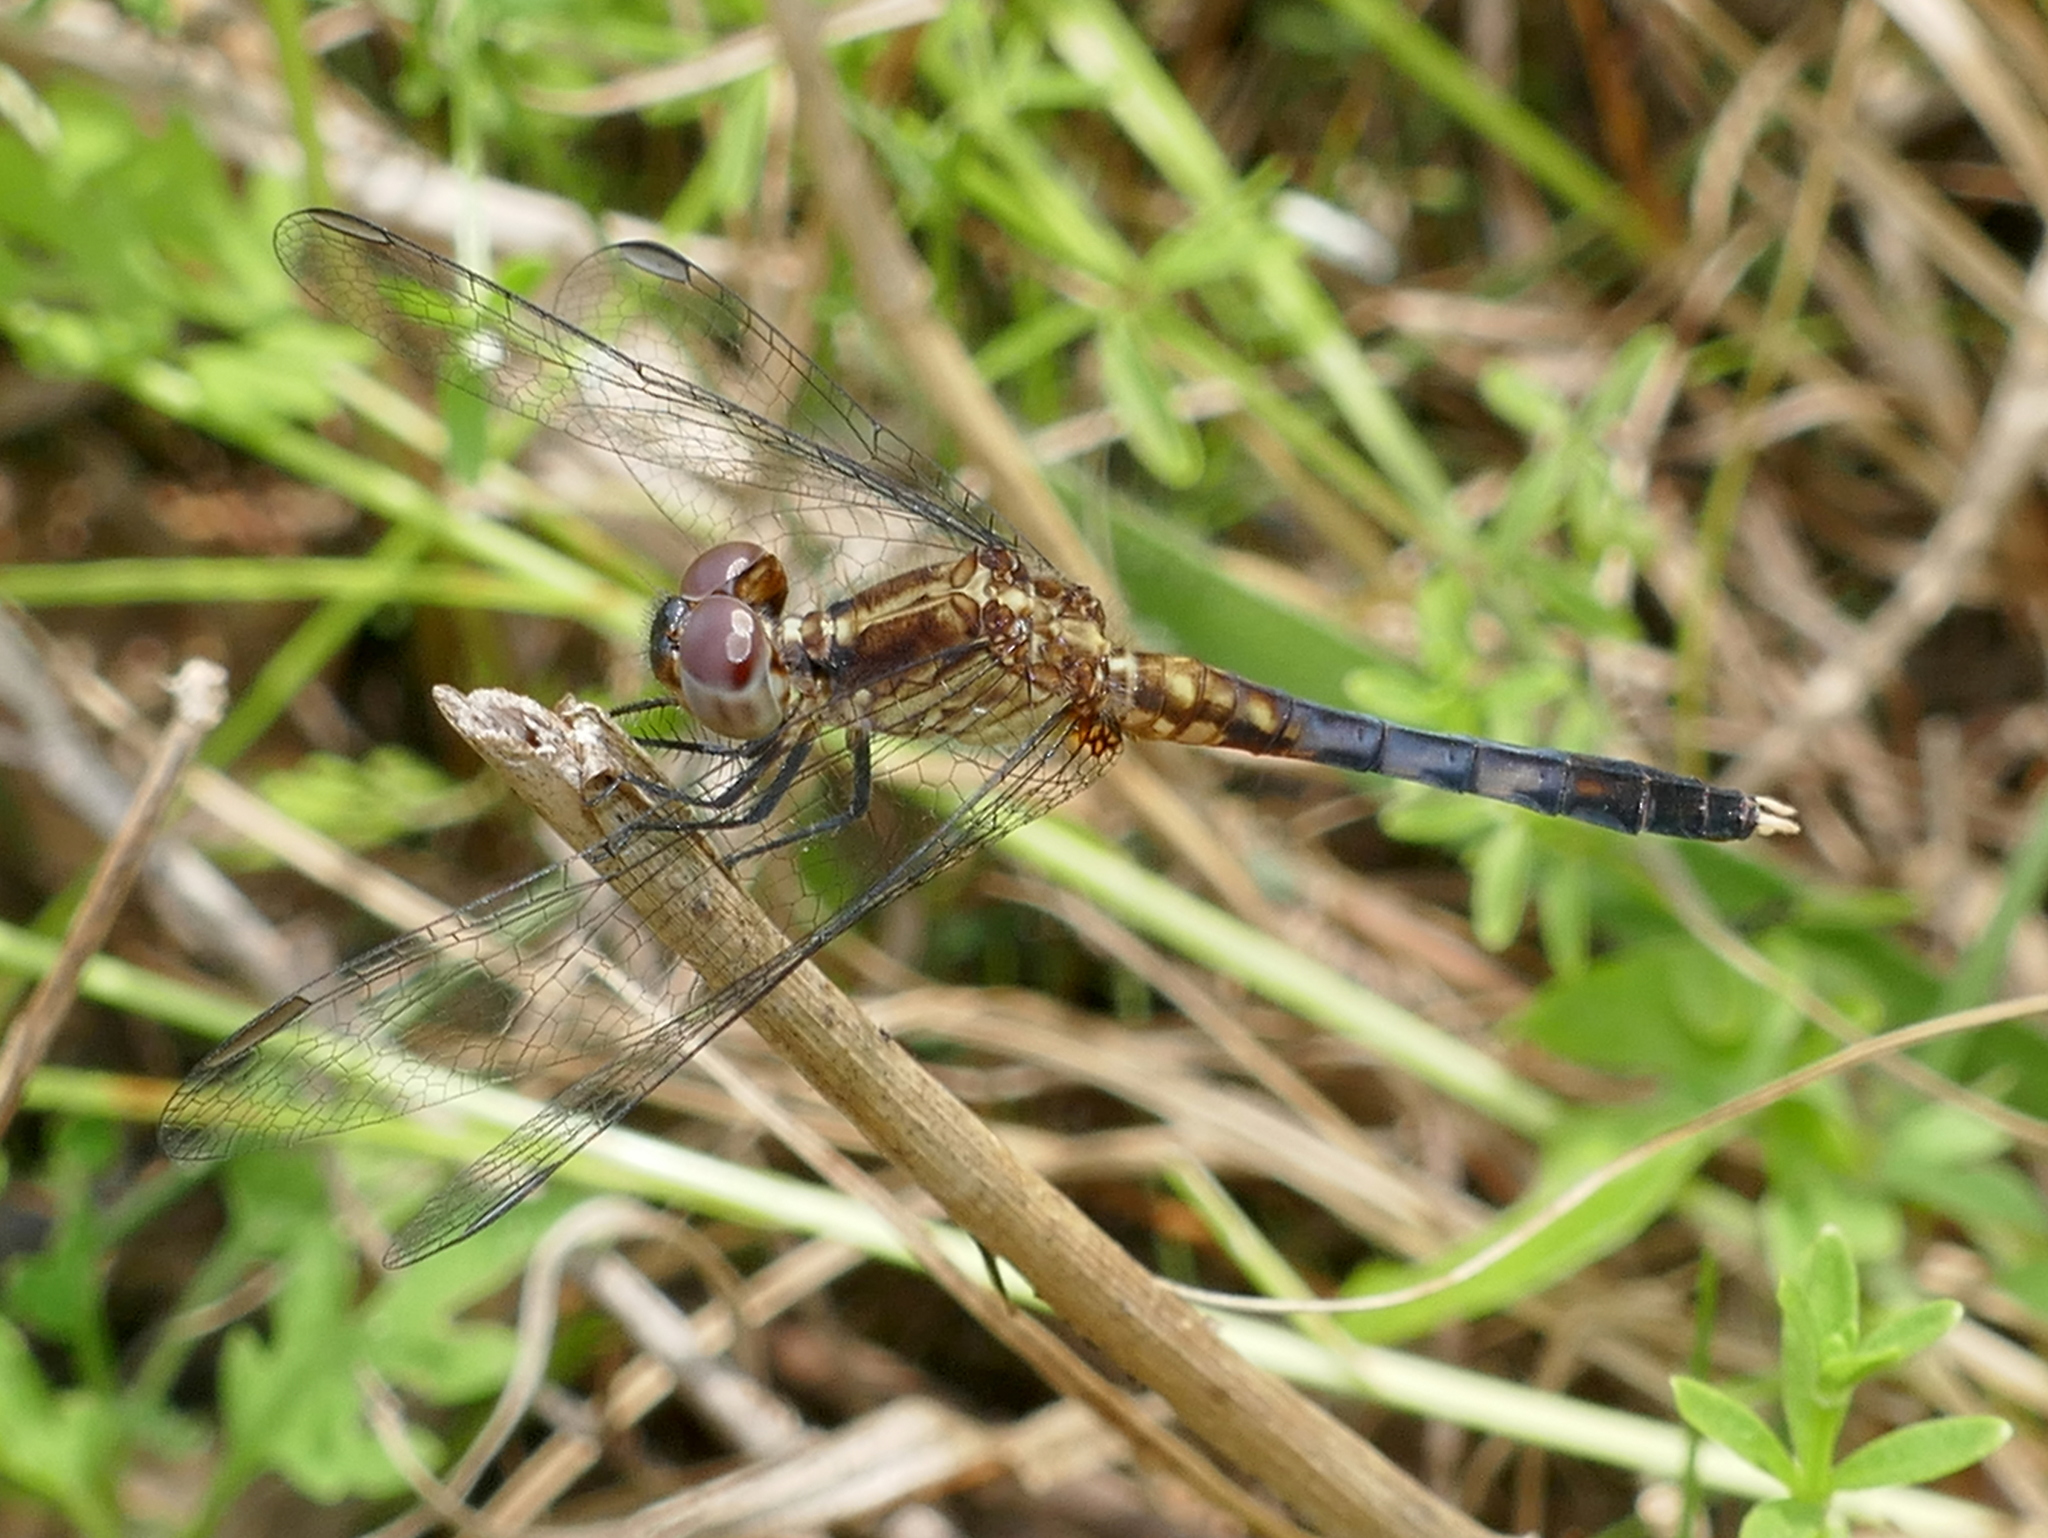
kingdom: Animalia
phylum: Arthropoda
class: Insecta
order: Odonata
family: Libellulidae
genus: Erythrodiplax
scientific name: Erythrodiplax minuscula
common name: Little blue dragonlet
